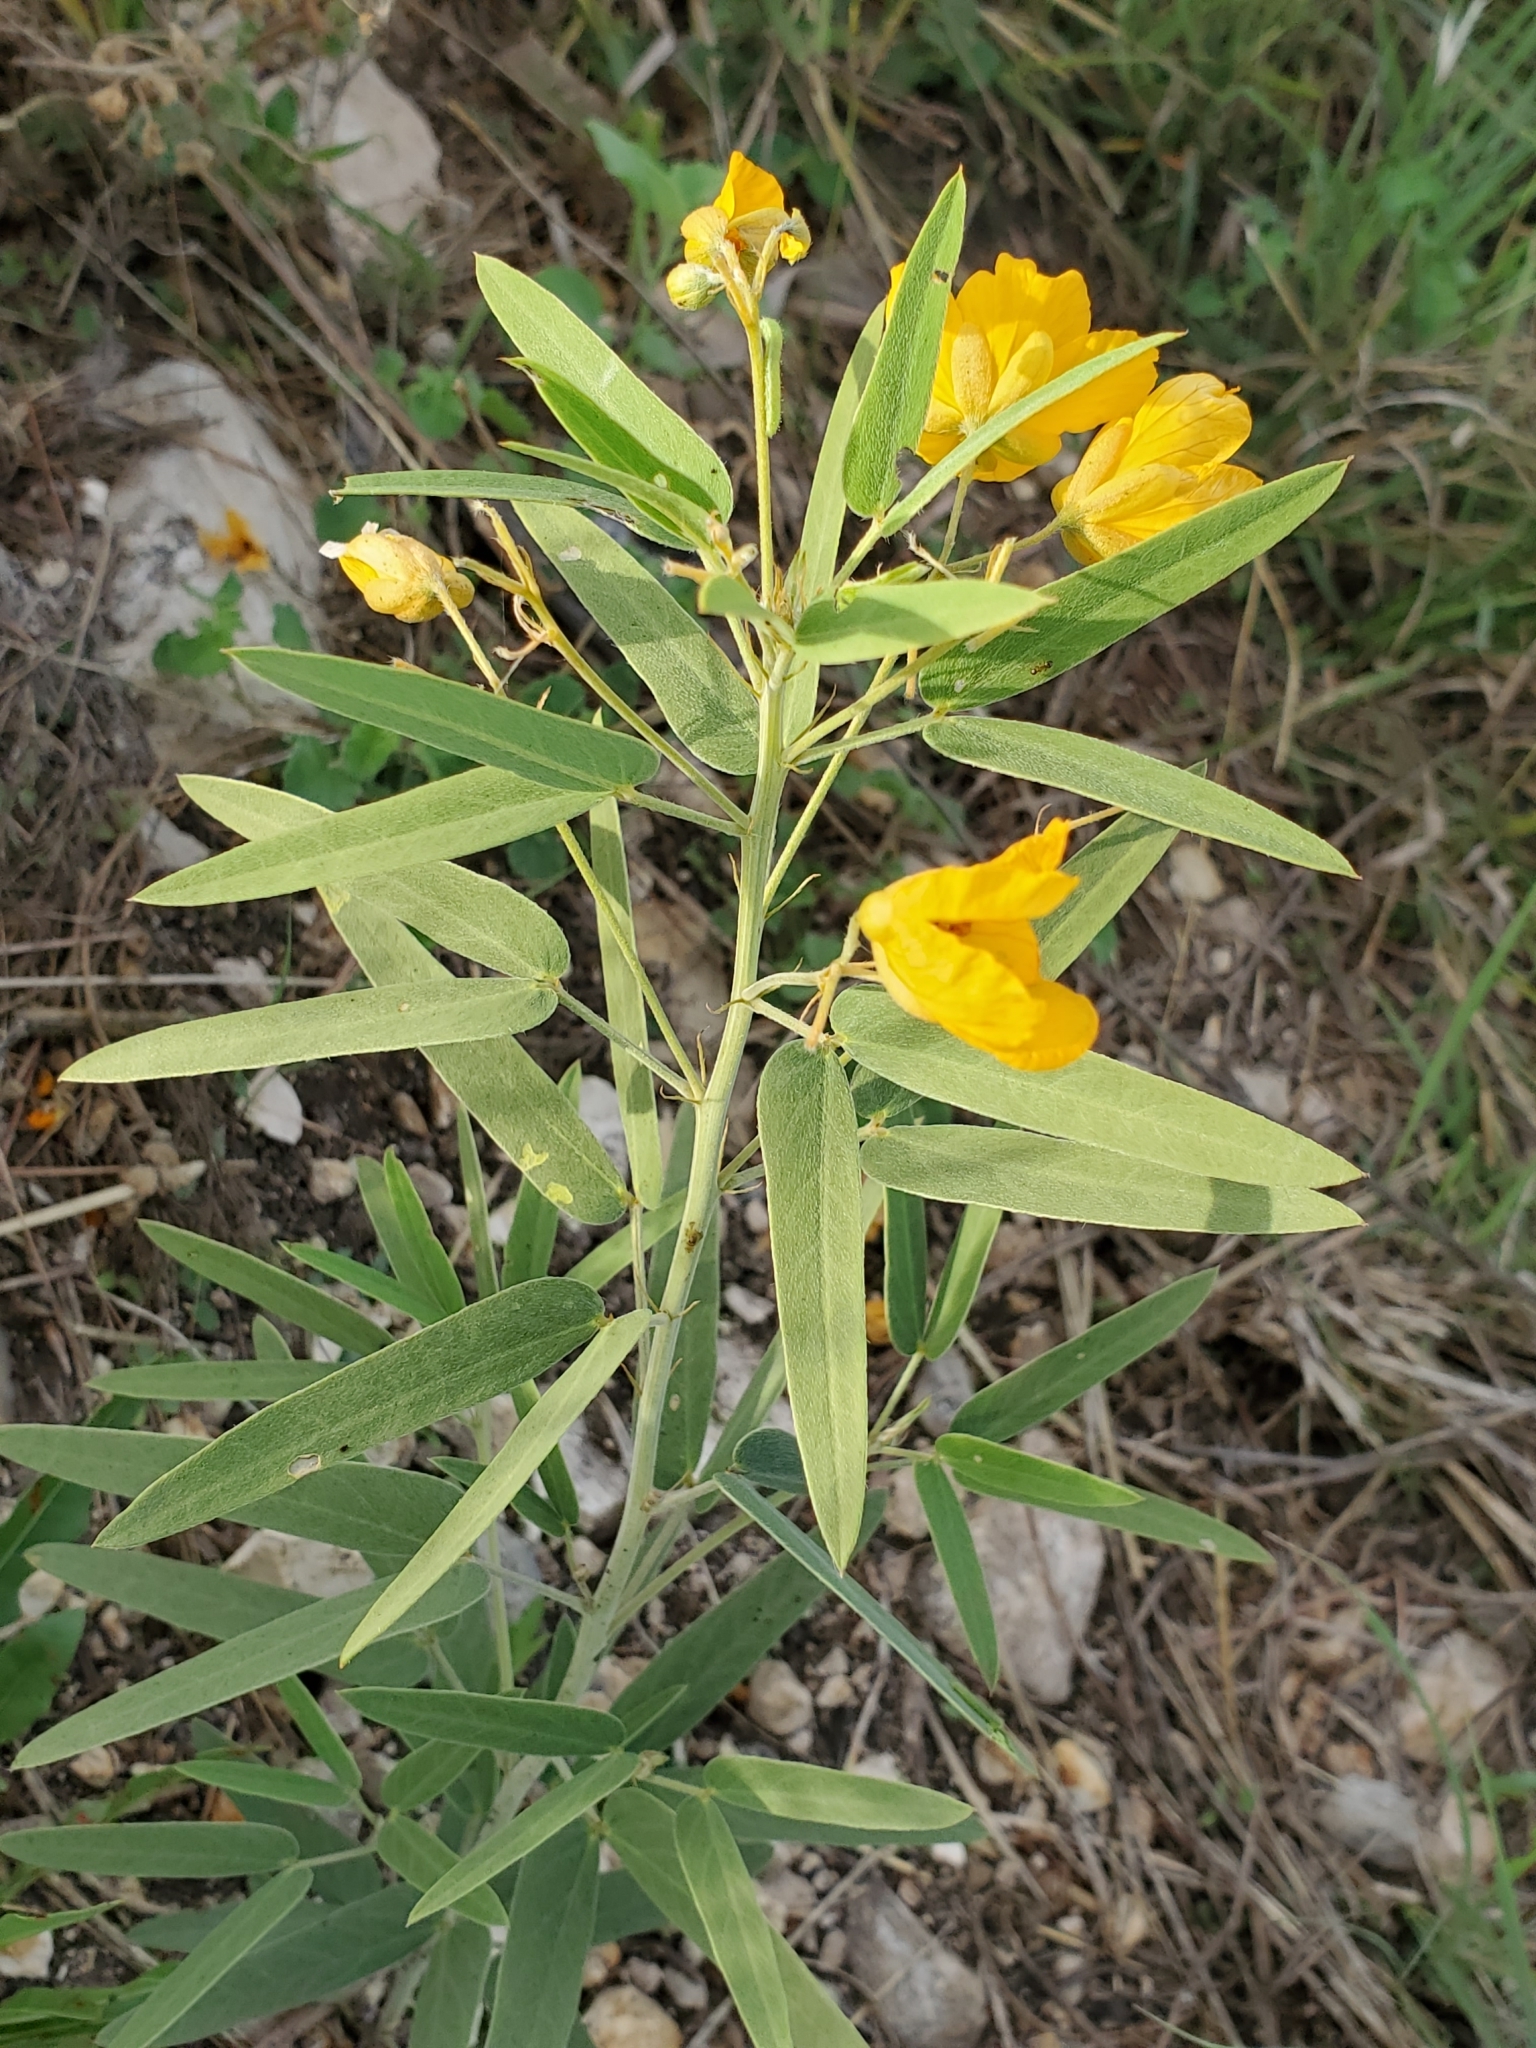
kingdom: Plantae
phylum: Tracheophyta
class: Magnoliopsida
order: Fabales
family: Fabaceae
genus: Senna
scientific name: Senna roemeriana
